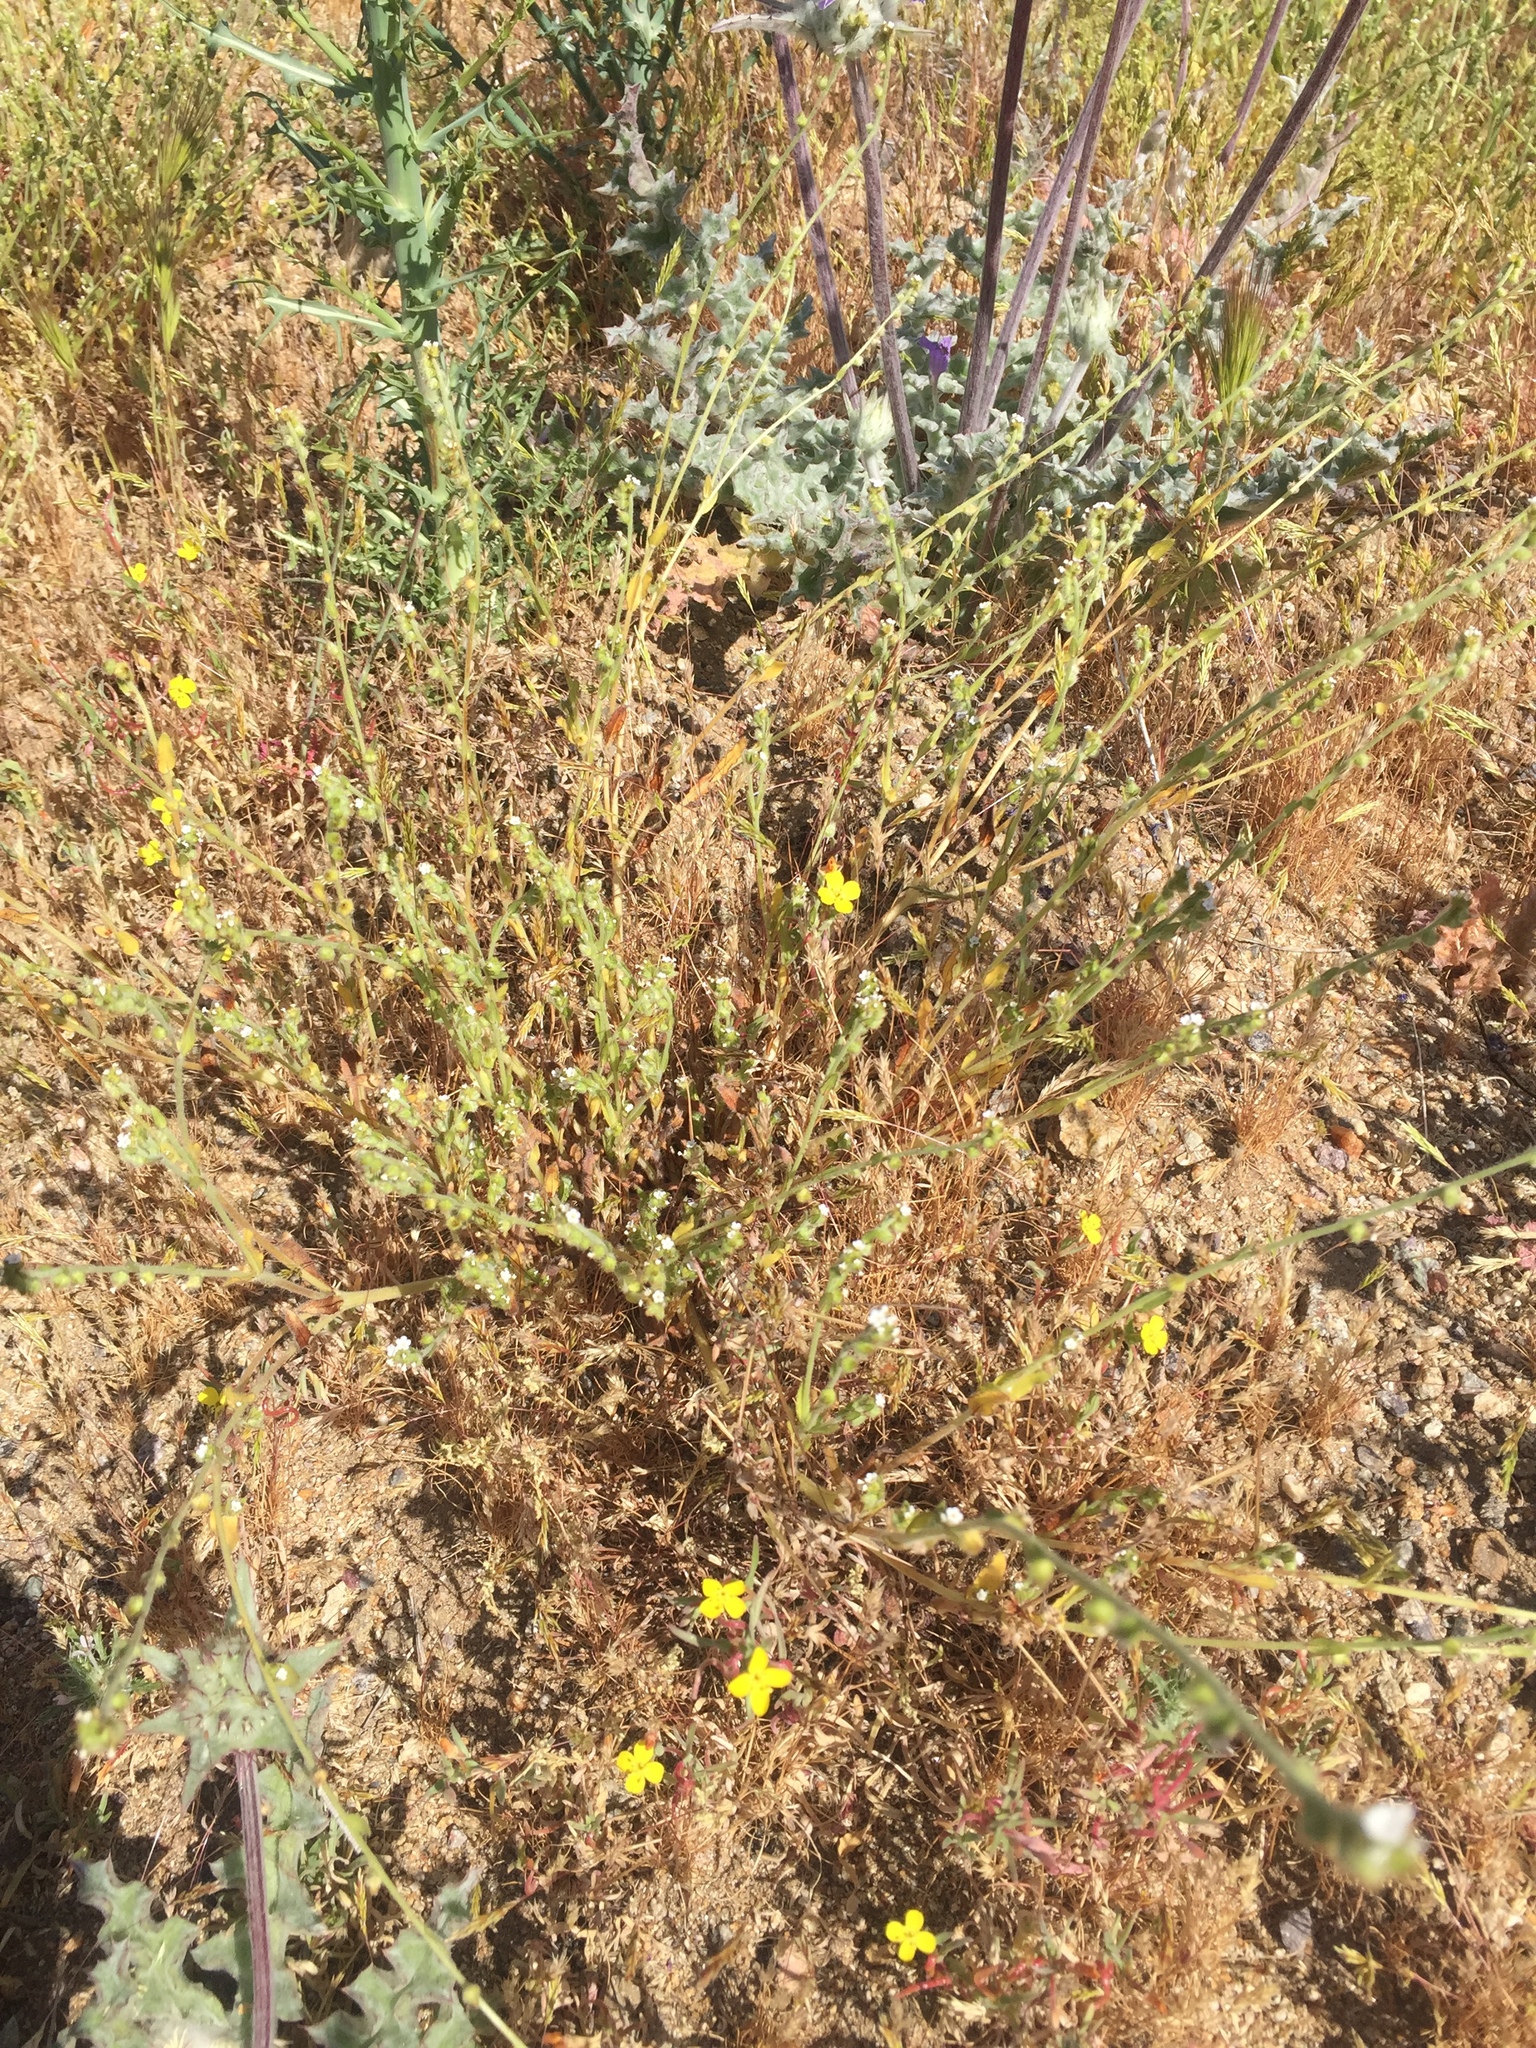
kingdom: Plantae
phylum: Tracheophyta
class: Magnoliopsida
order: Boraginales
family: Boraginaceae
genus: Plagiobothrys
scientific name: Plagiobothrys arizonicus
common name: Arizona popcorn-flower
